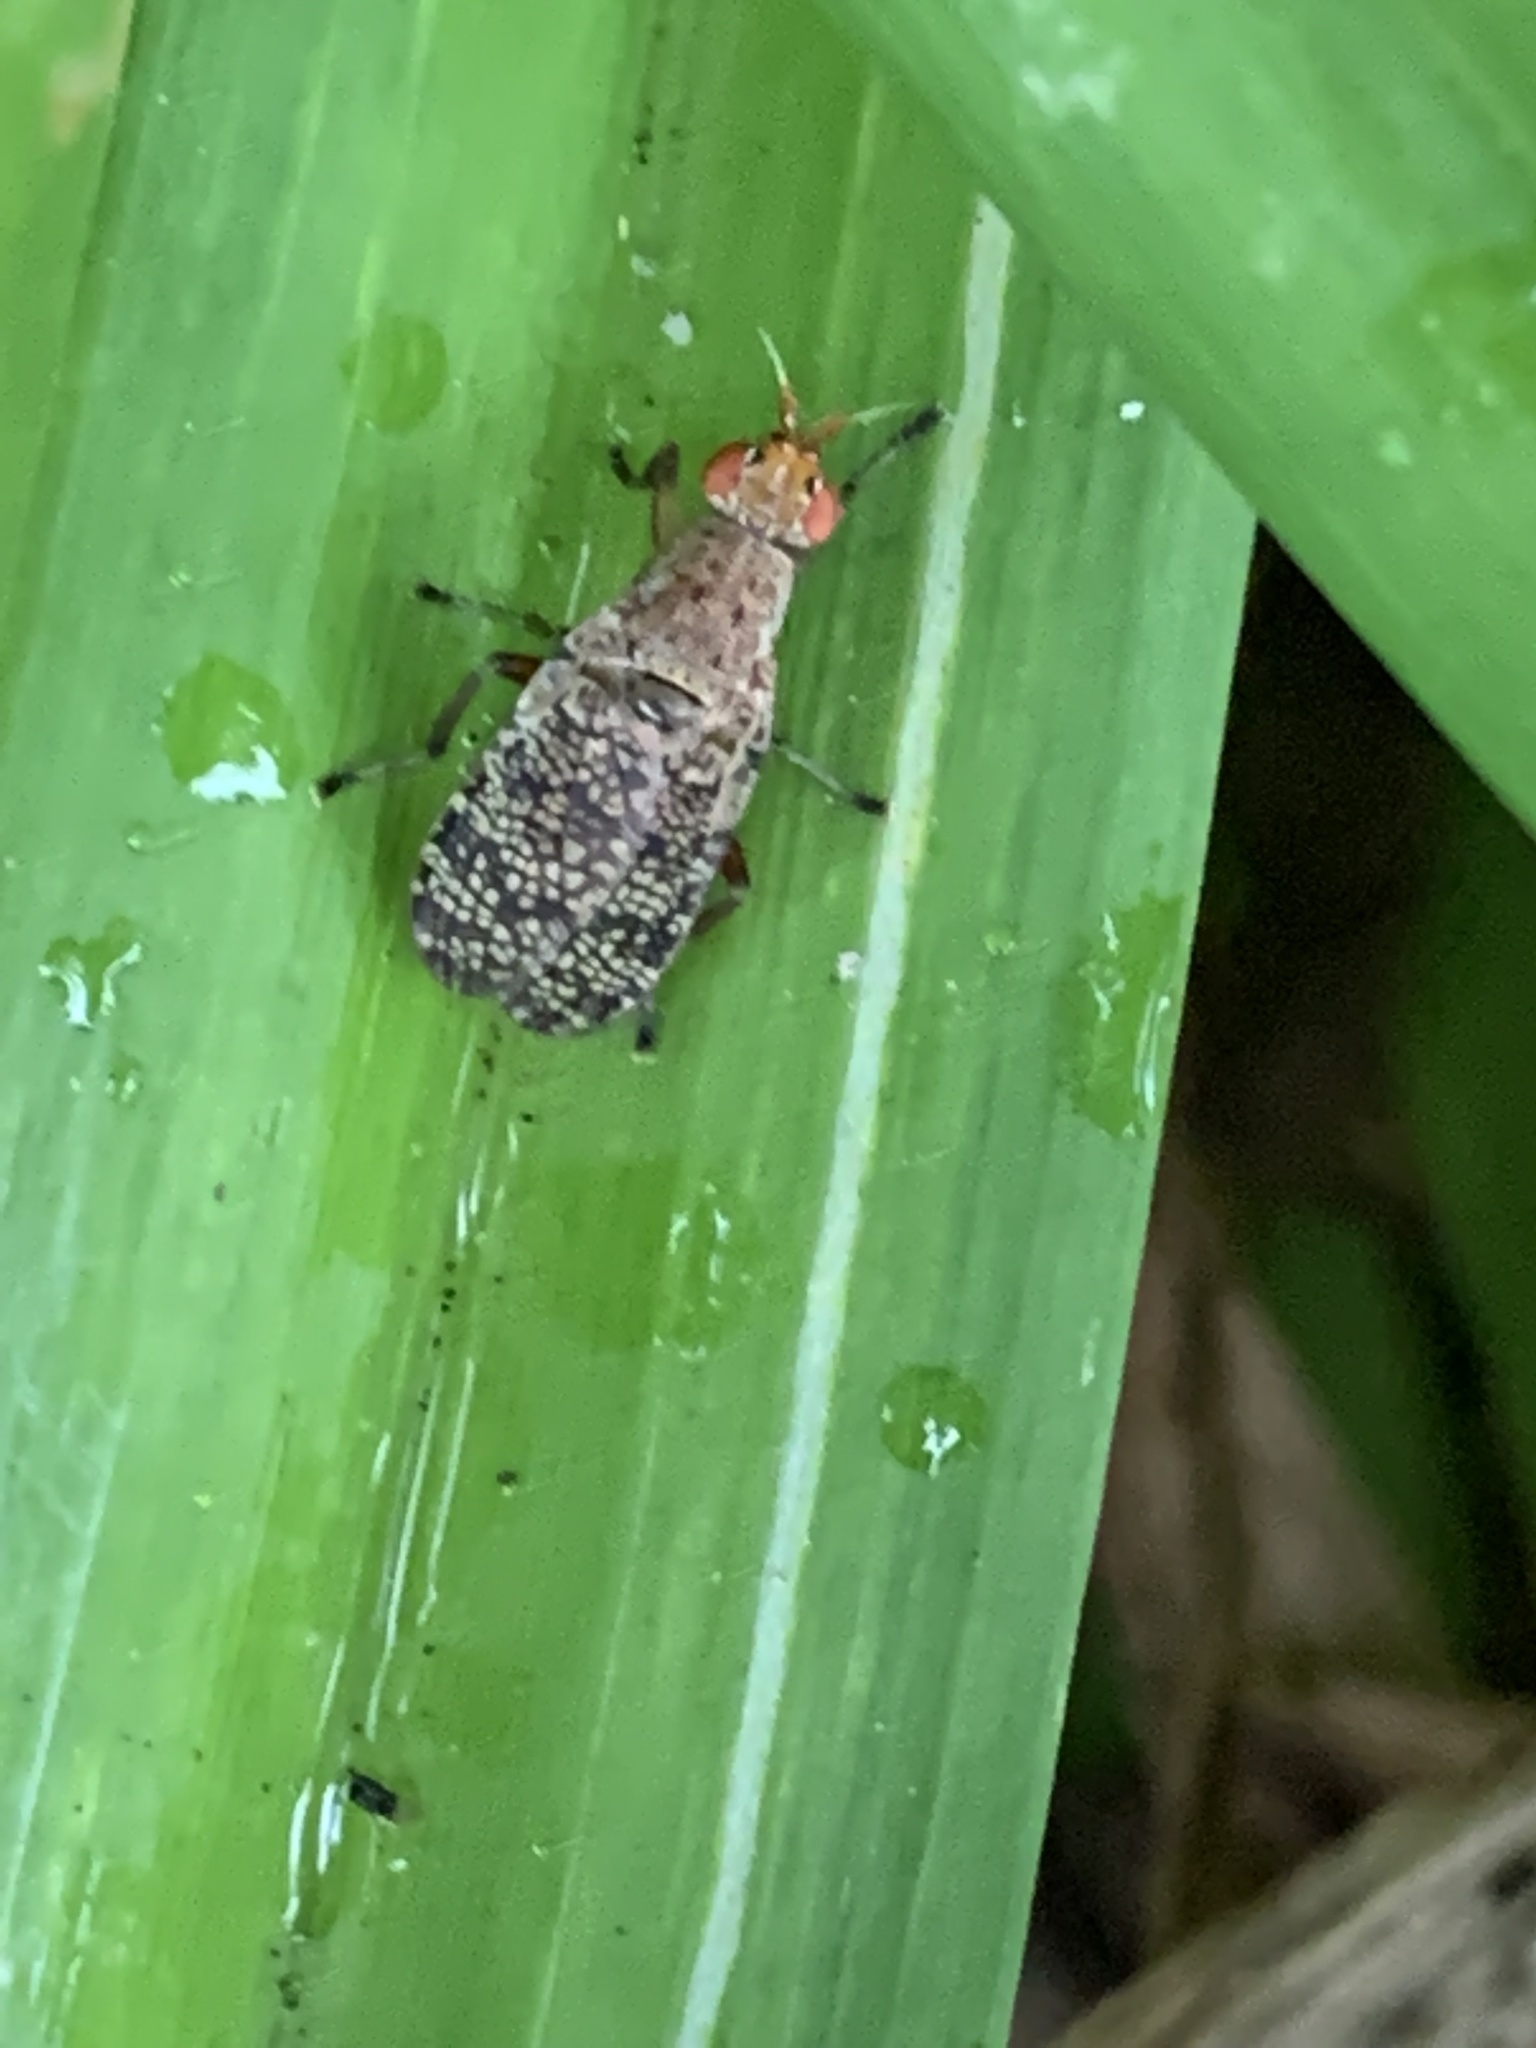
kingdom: Animalia
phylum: Arthropoda
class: Insecta
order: Diptera
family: Sciomyzidae
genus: Euthycera
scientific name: Euthycera flavescens
